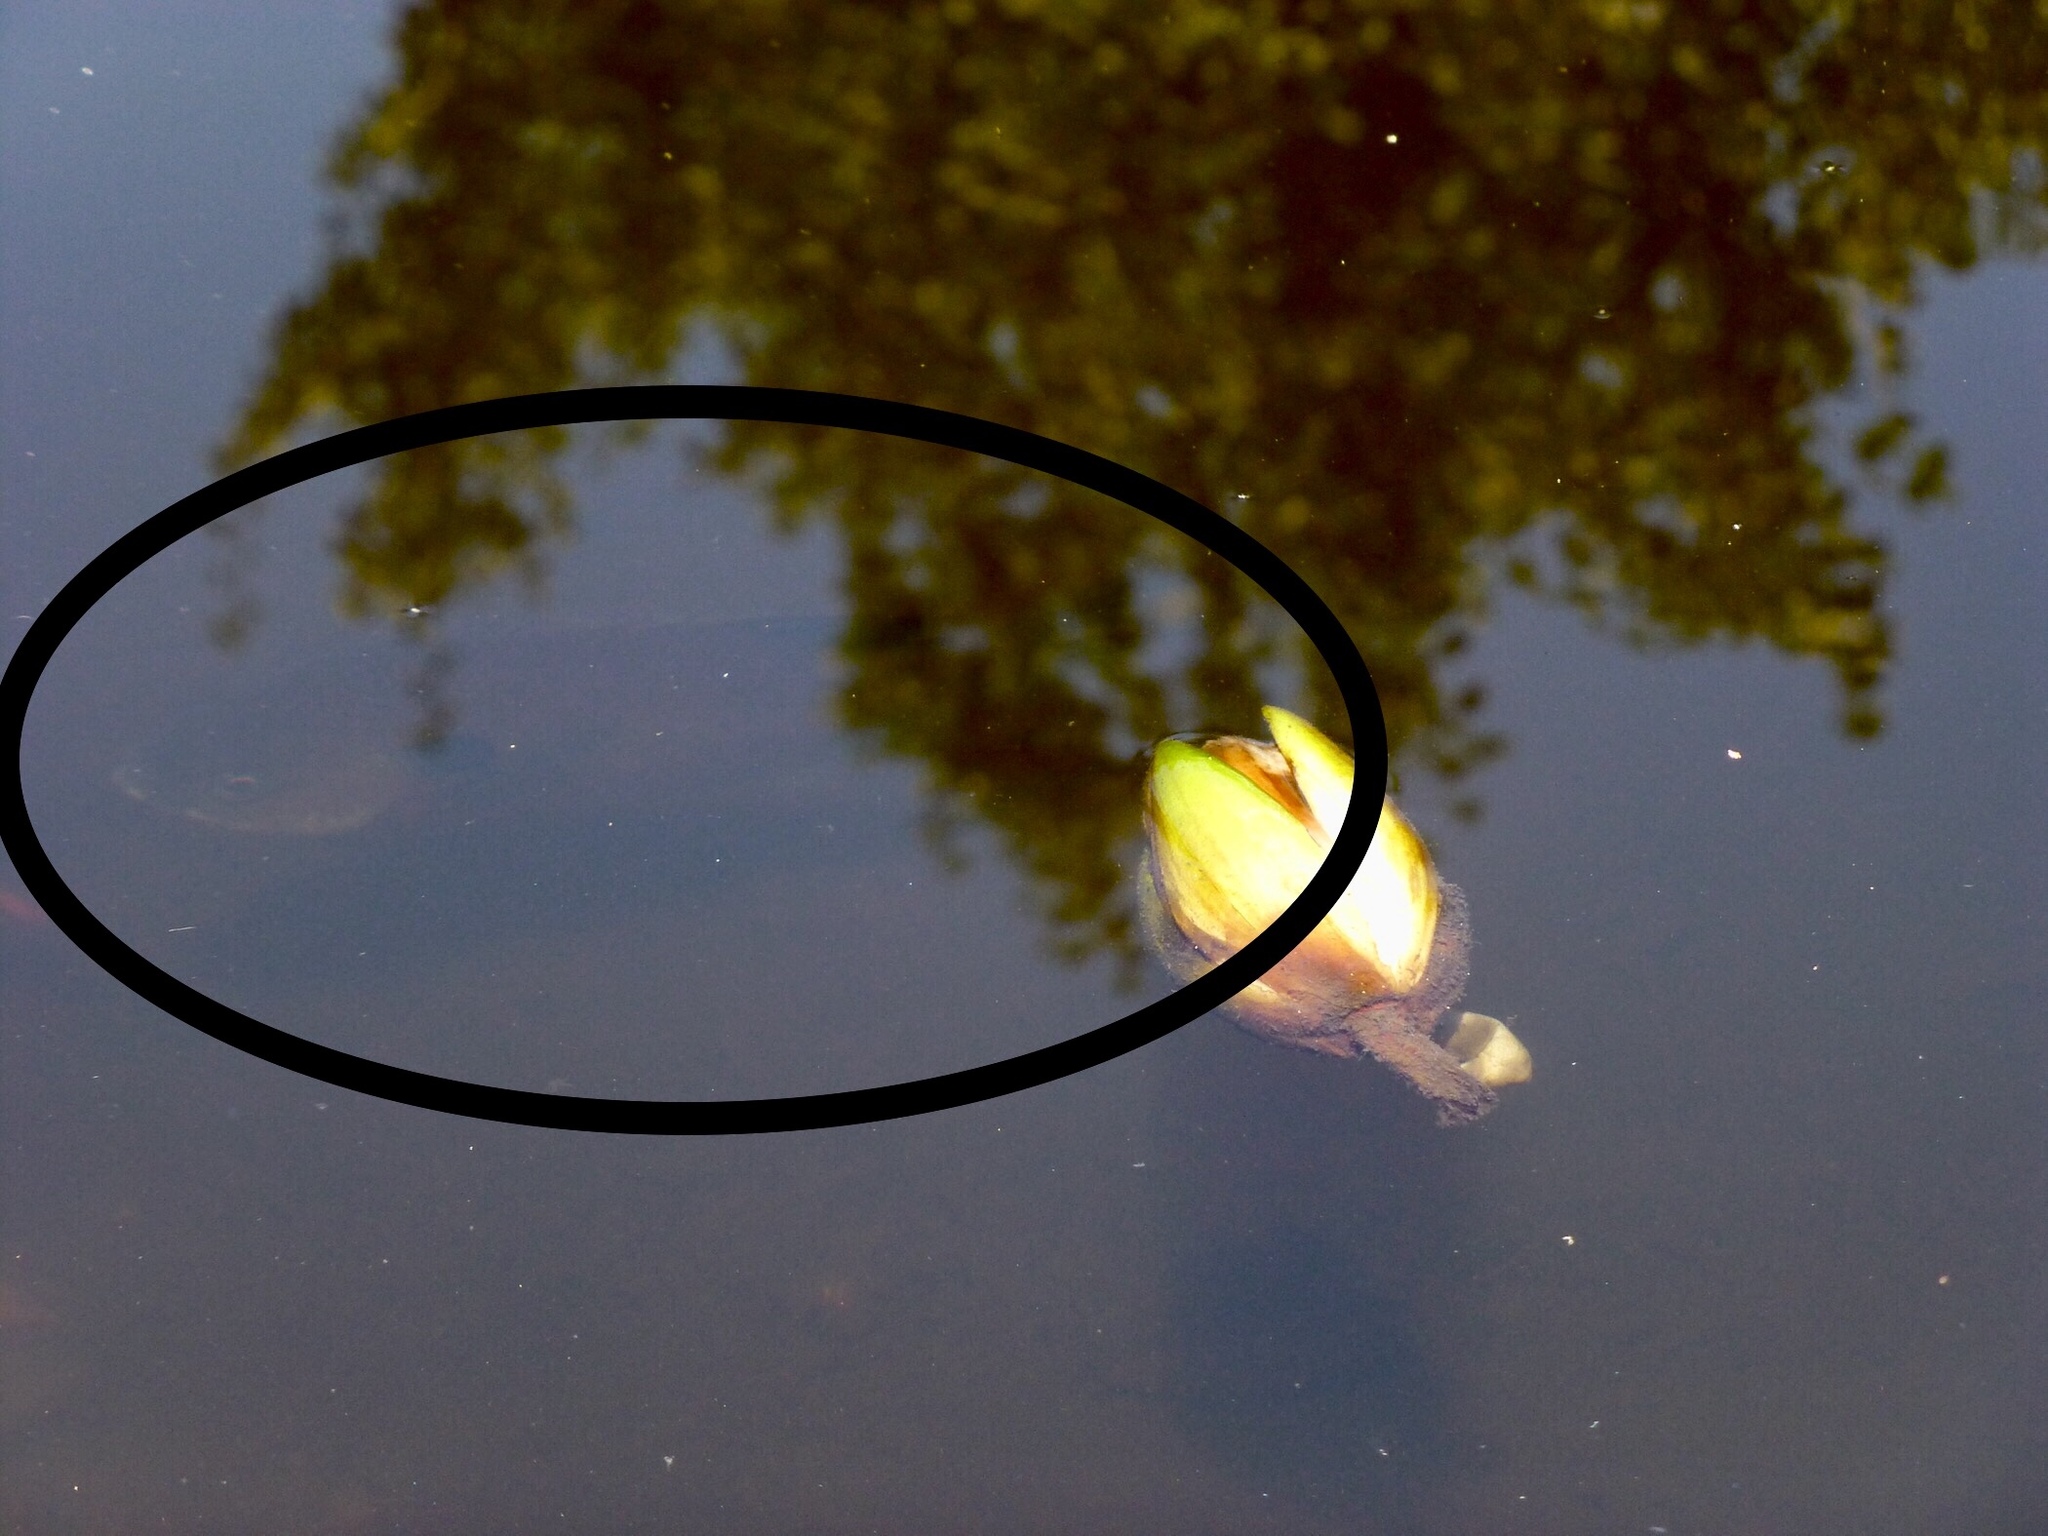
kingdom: Animalia
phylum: Chordata
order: Perciformes
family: Centrarchidae
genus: Lepomis
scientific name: Lepomis macrochirus
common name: Bluegill
